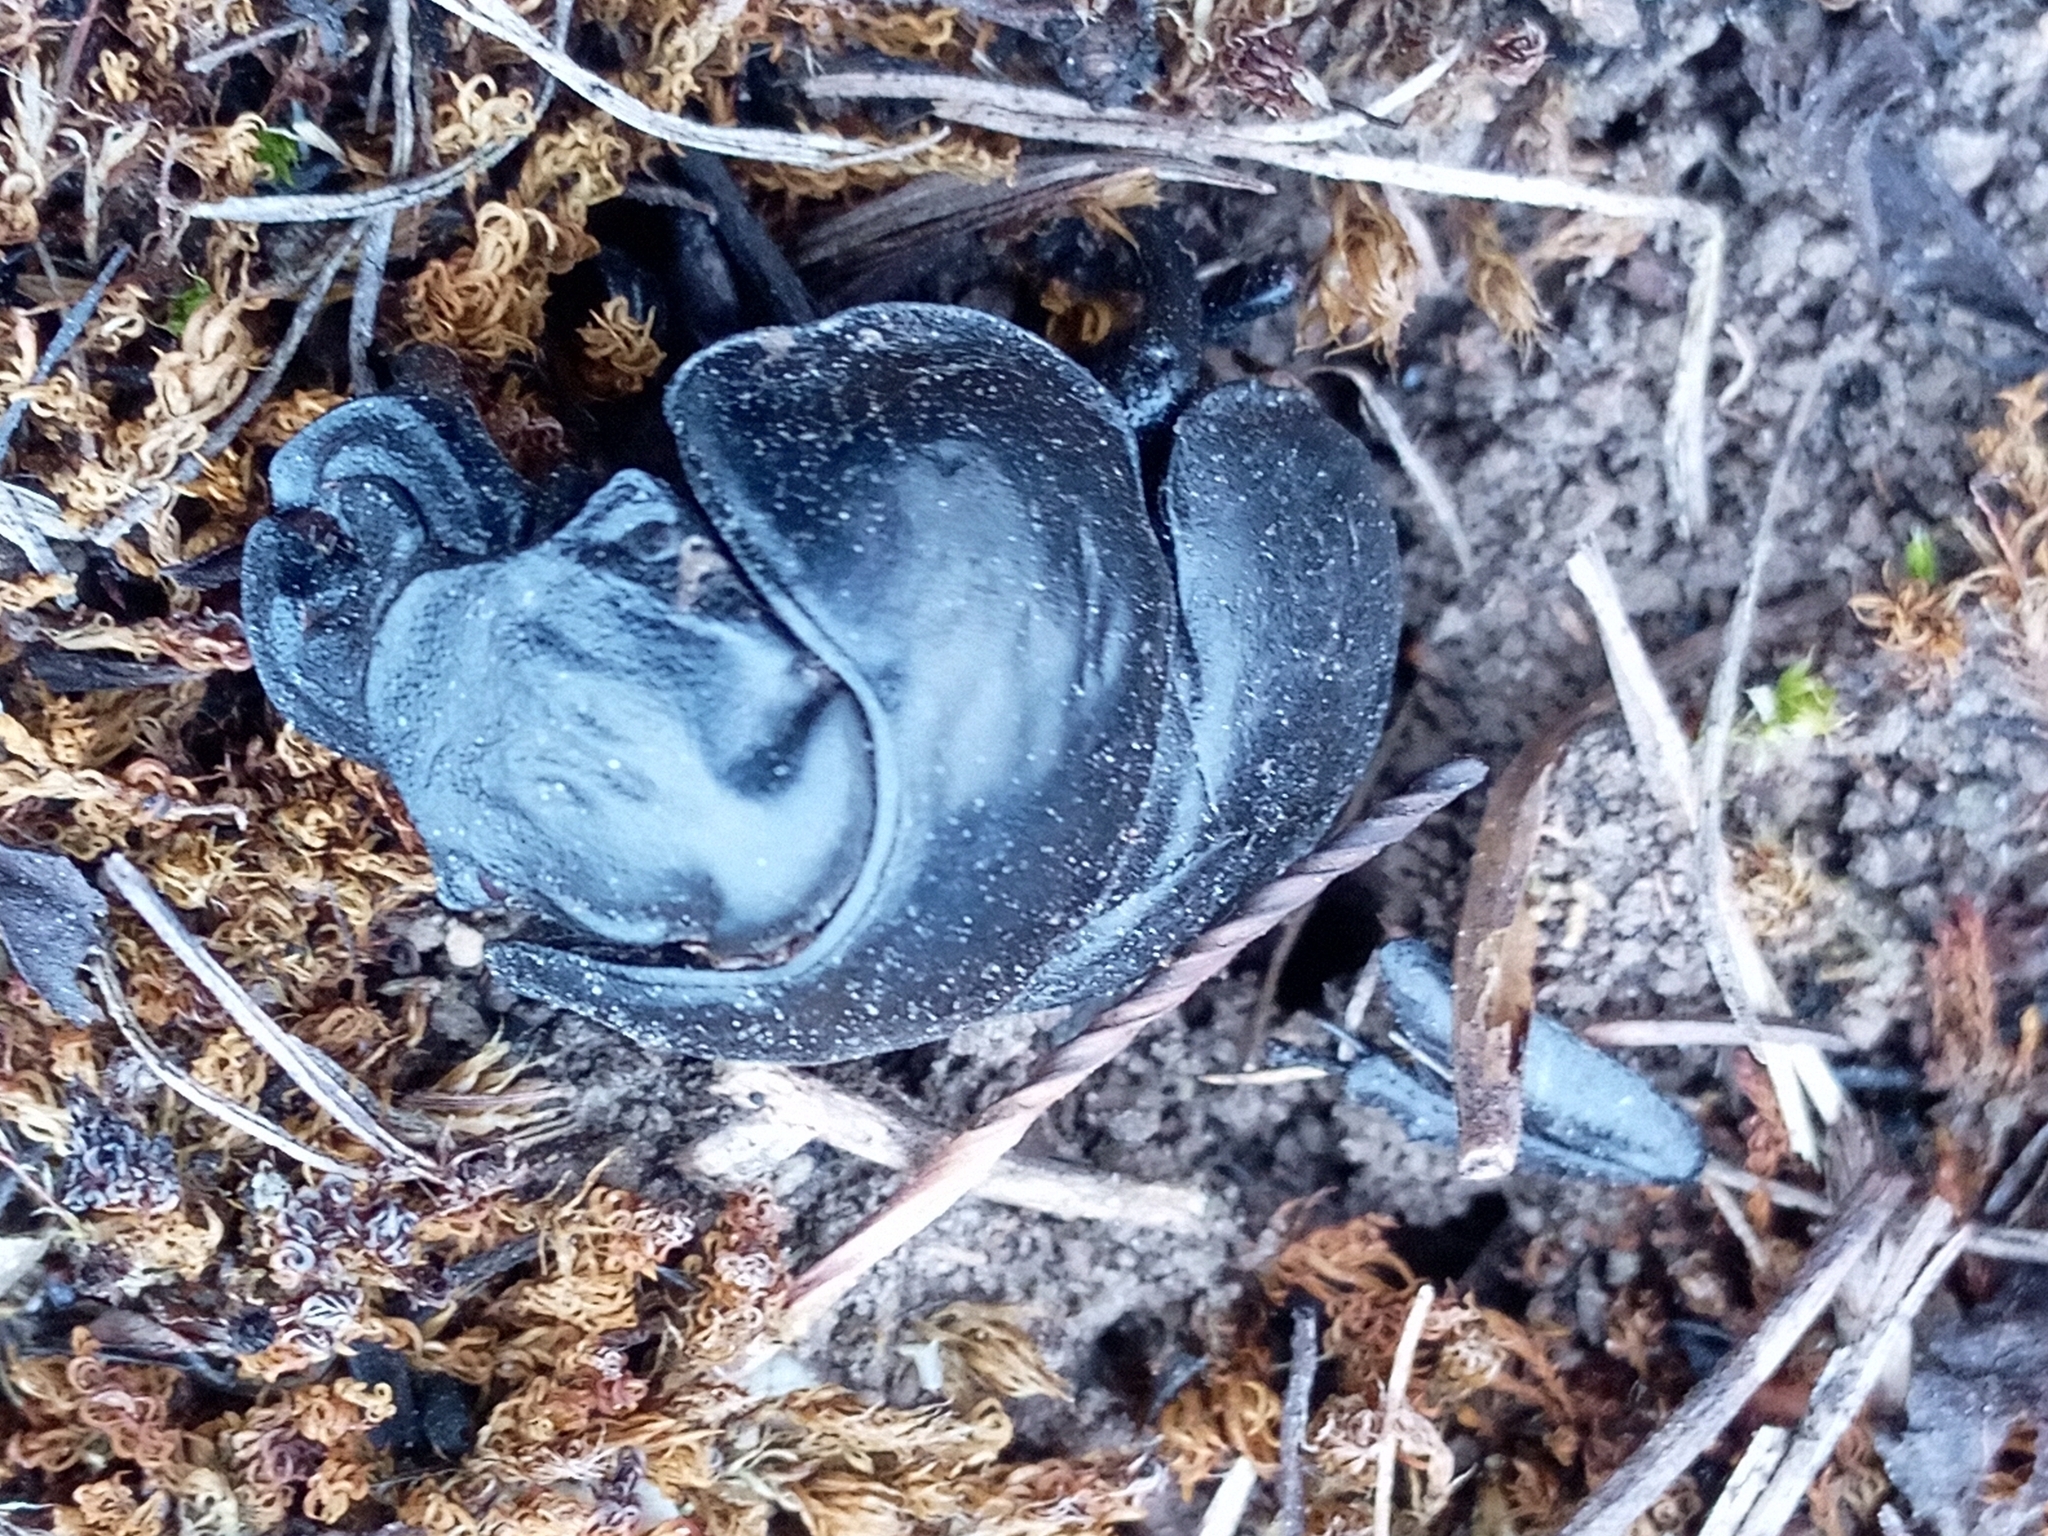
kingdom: Animalia
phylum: Arthropoda
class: Insecta
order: Coleoptera
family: Geotrupidae
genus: Lethrus
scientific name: Lethrus apterus
